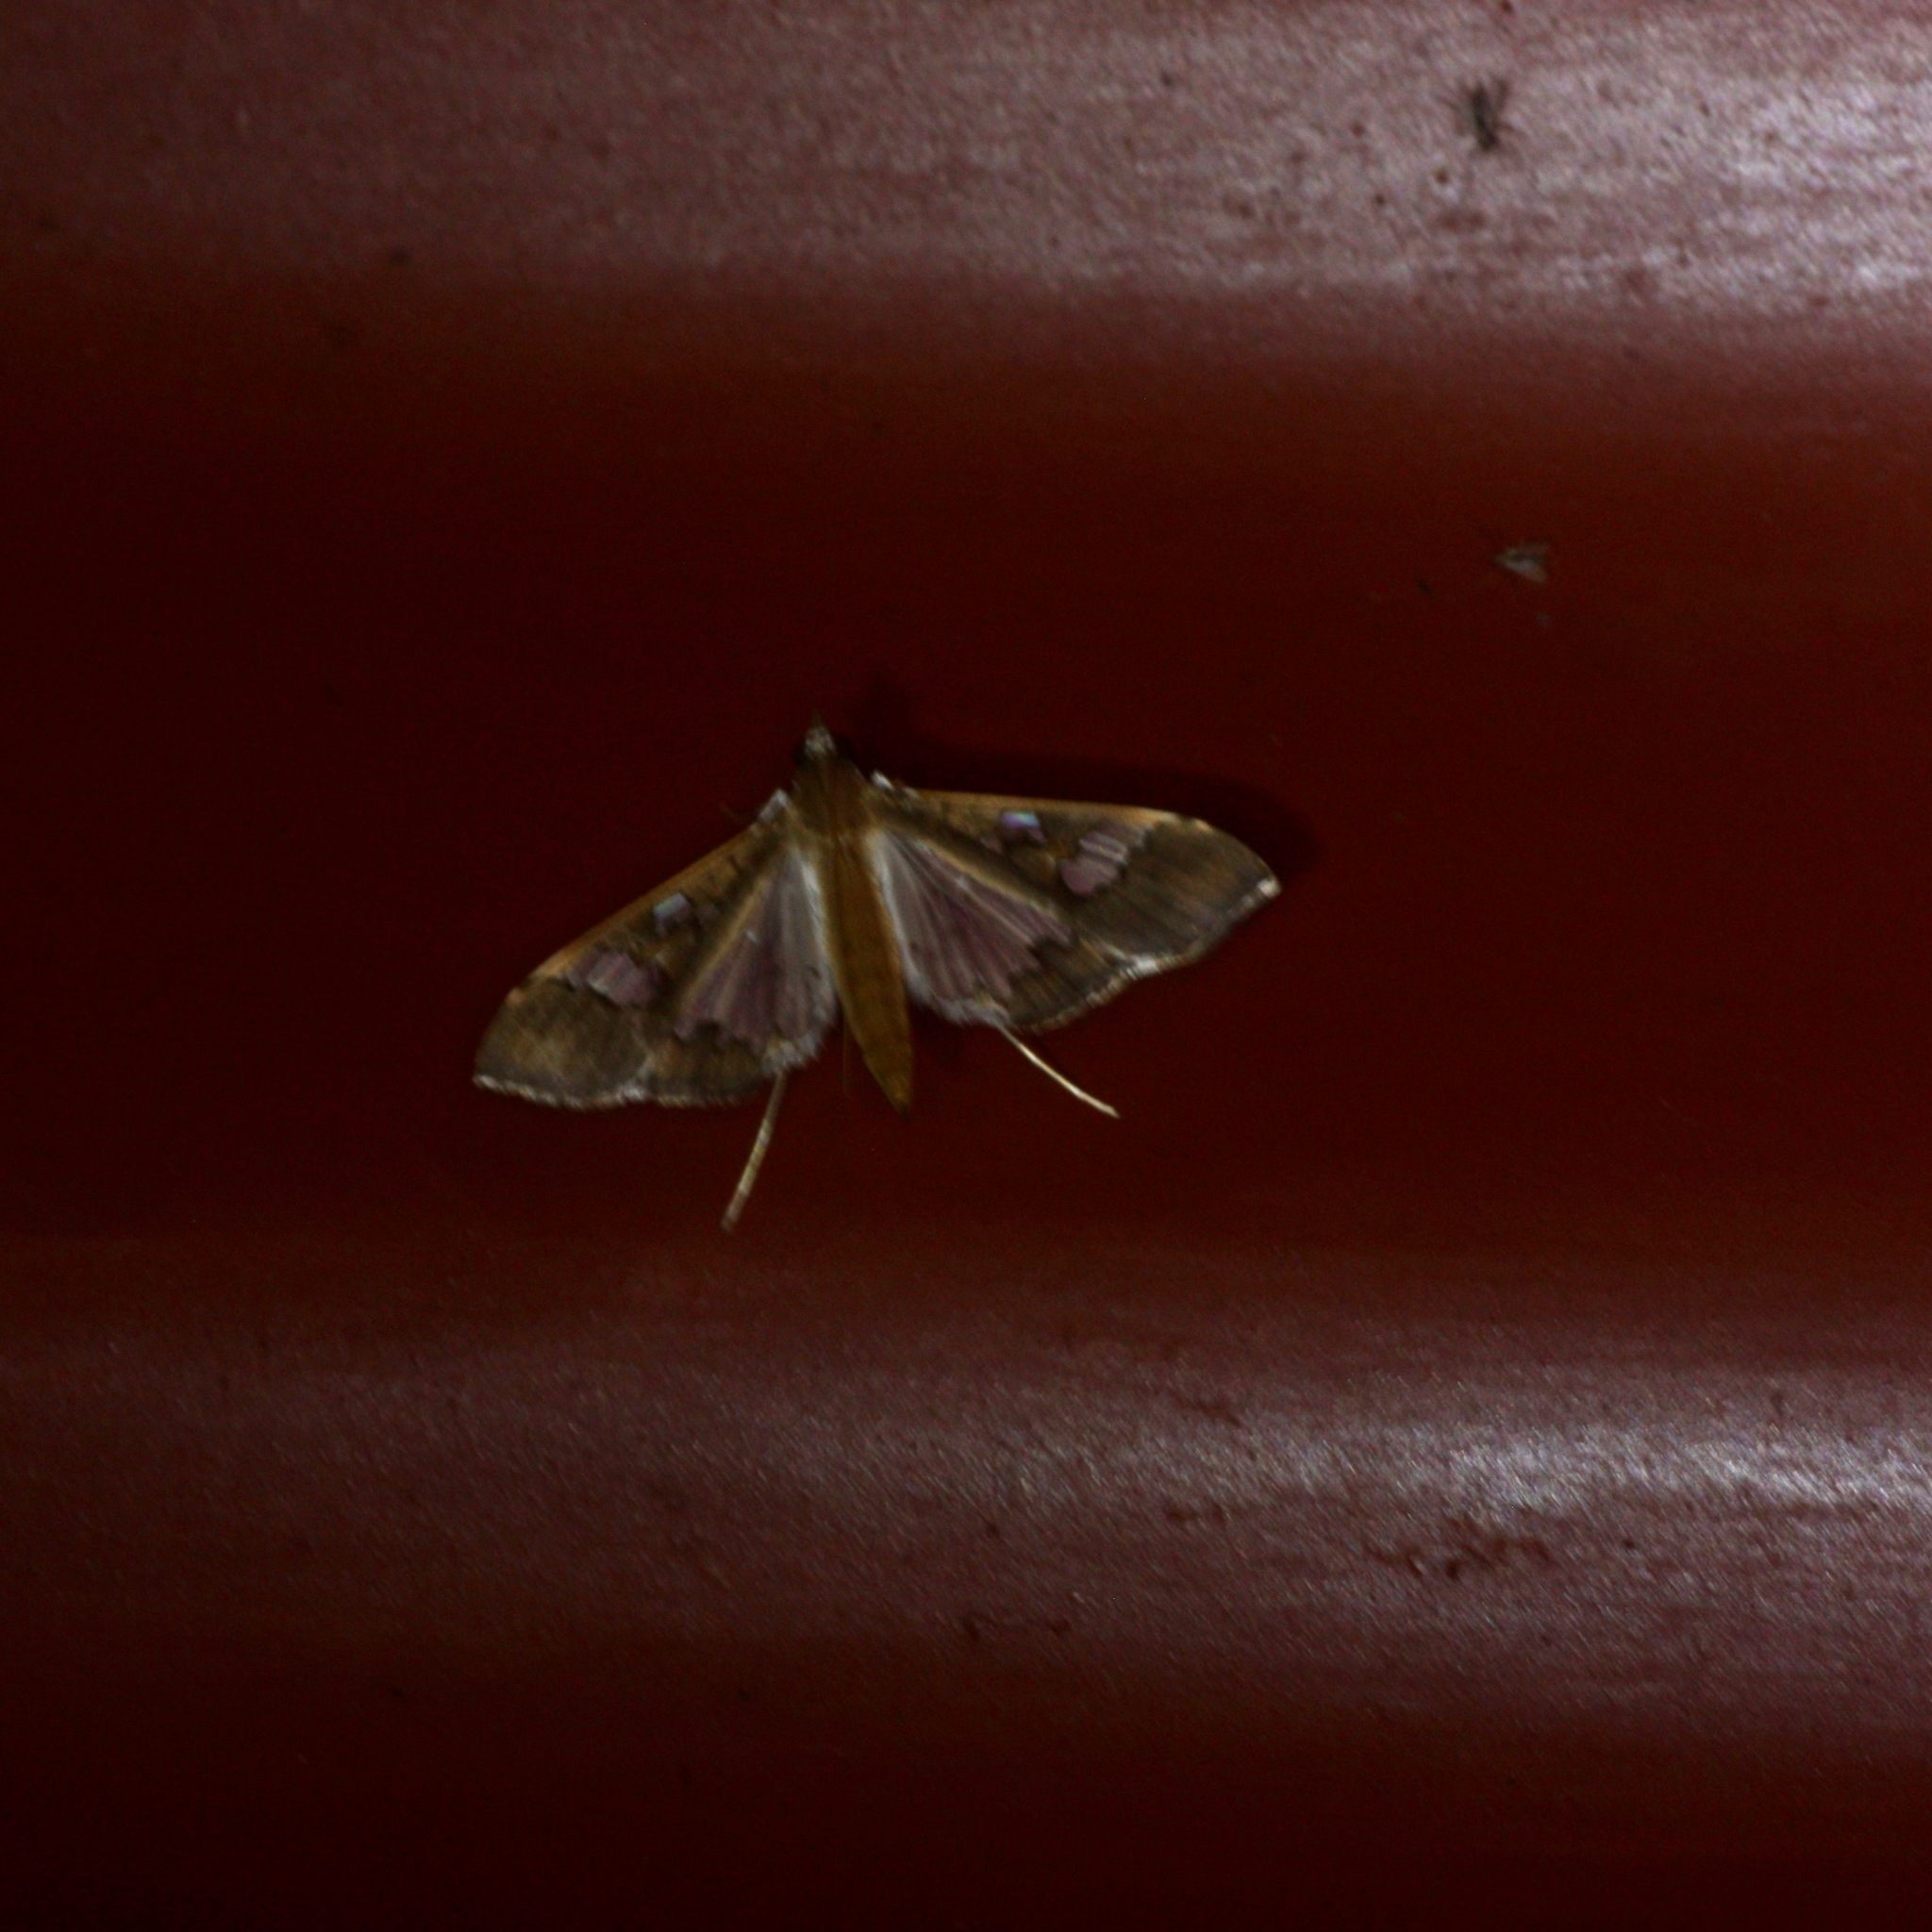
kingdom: Animalia
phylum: Arthropoda
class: Insecta
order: Lepidoptera
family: Crambidae
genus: Maruca
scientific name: Maruca vitrata
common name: Maruca pod borer
